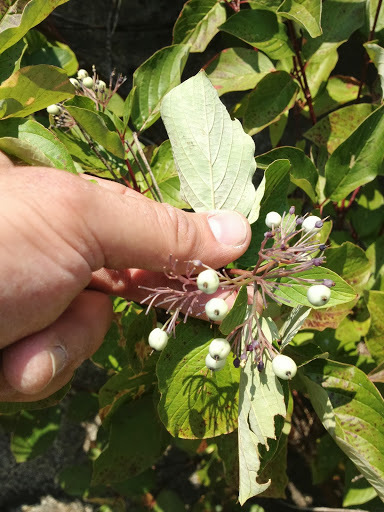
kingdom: Plantae
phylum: Tracheophyta
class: Magnoliopsida
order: Cornales
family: Cornaceae
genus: Cornus
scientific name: Cornus sericea
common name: Red-osier dogwood
